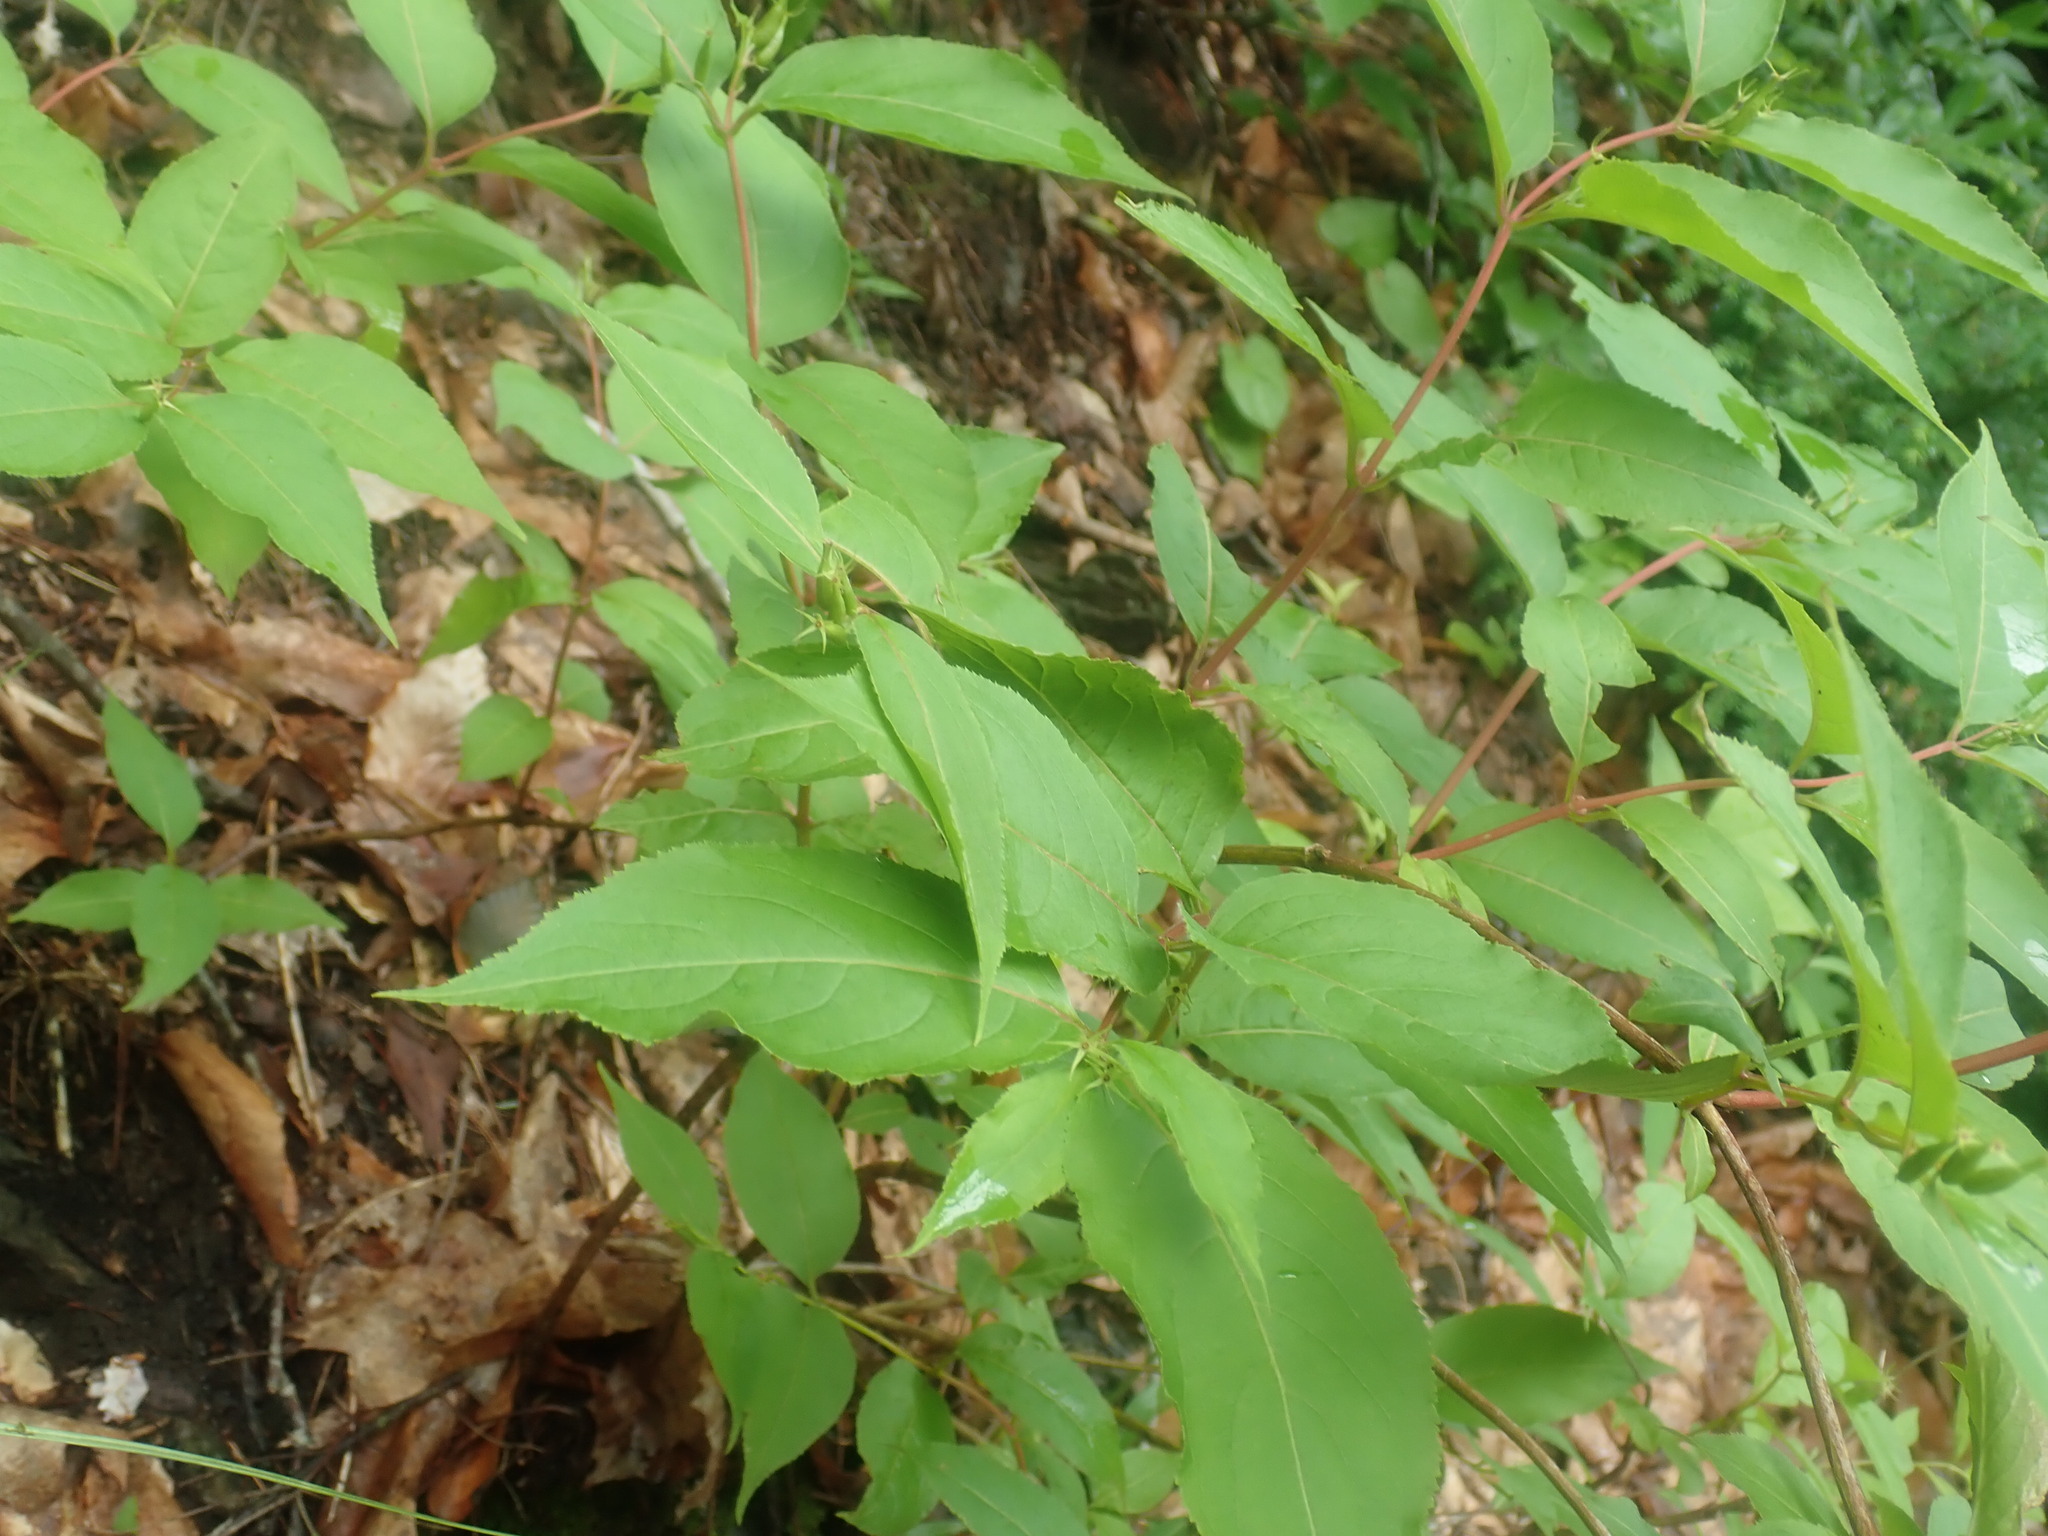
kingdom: Plantae
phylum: Tracheophyta
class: Magnoliopsida
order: Dipsacales
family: Caprifoliaceae
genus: Diervilla
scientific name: Diervilla lonicera
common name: Bush-honeysuckle
